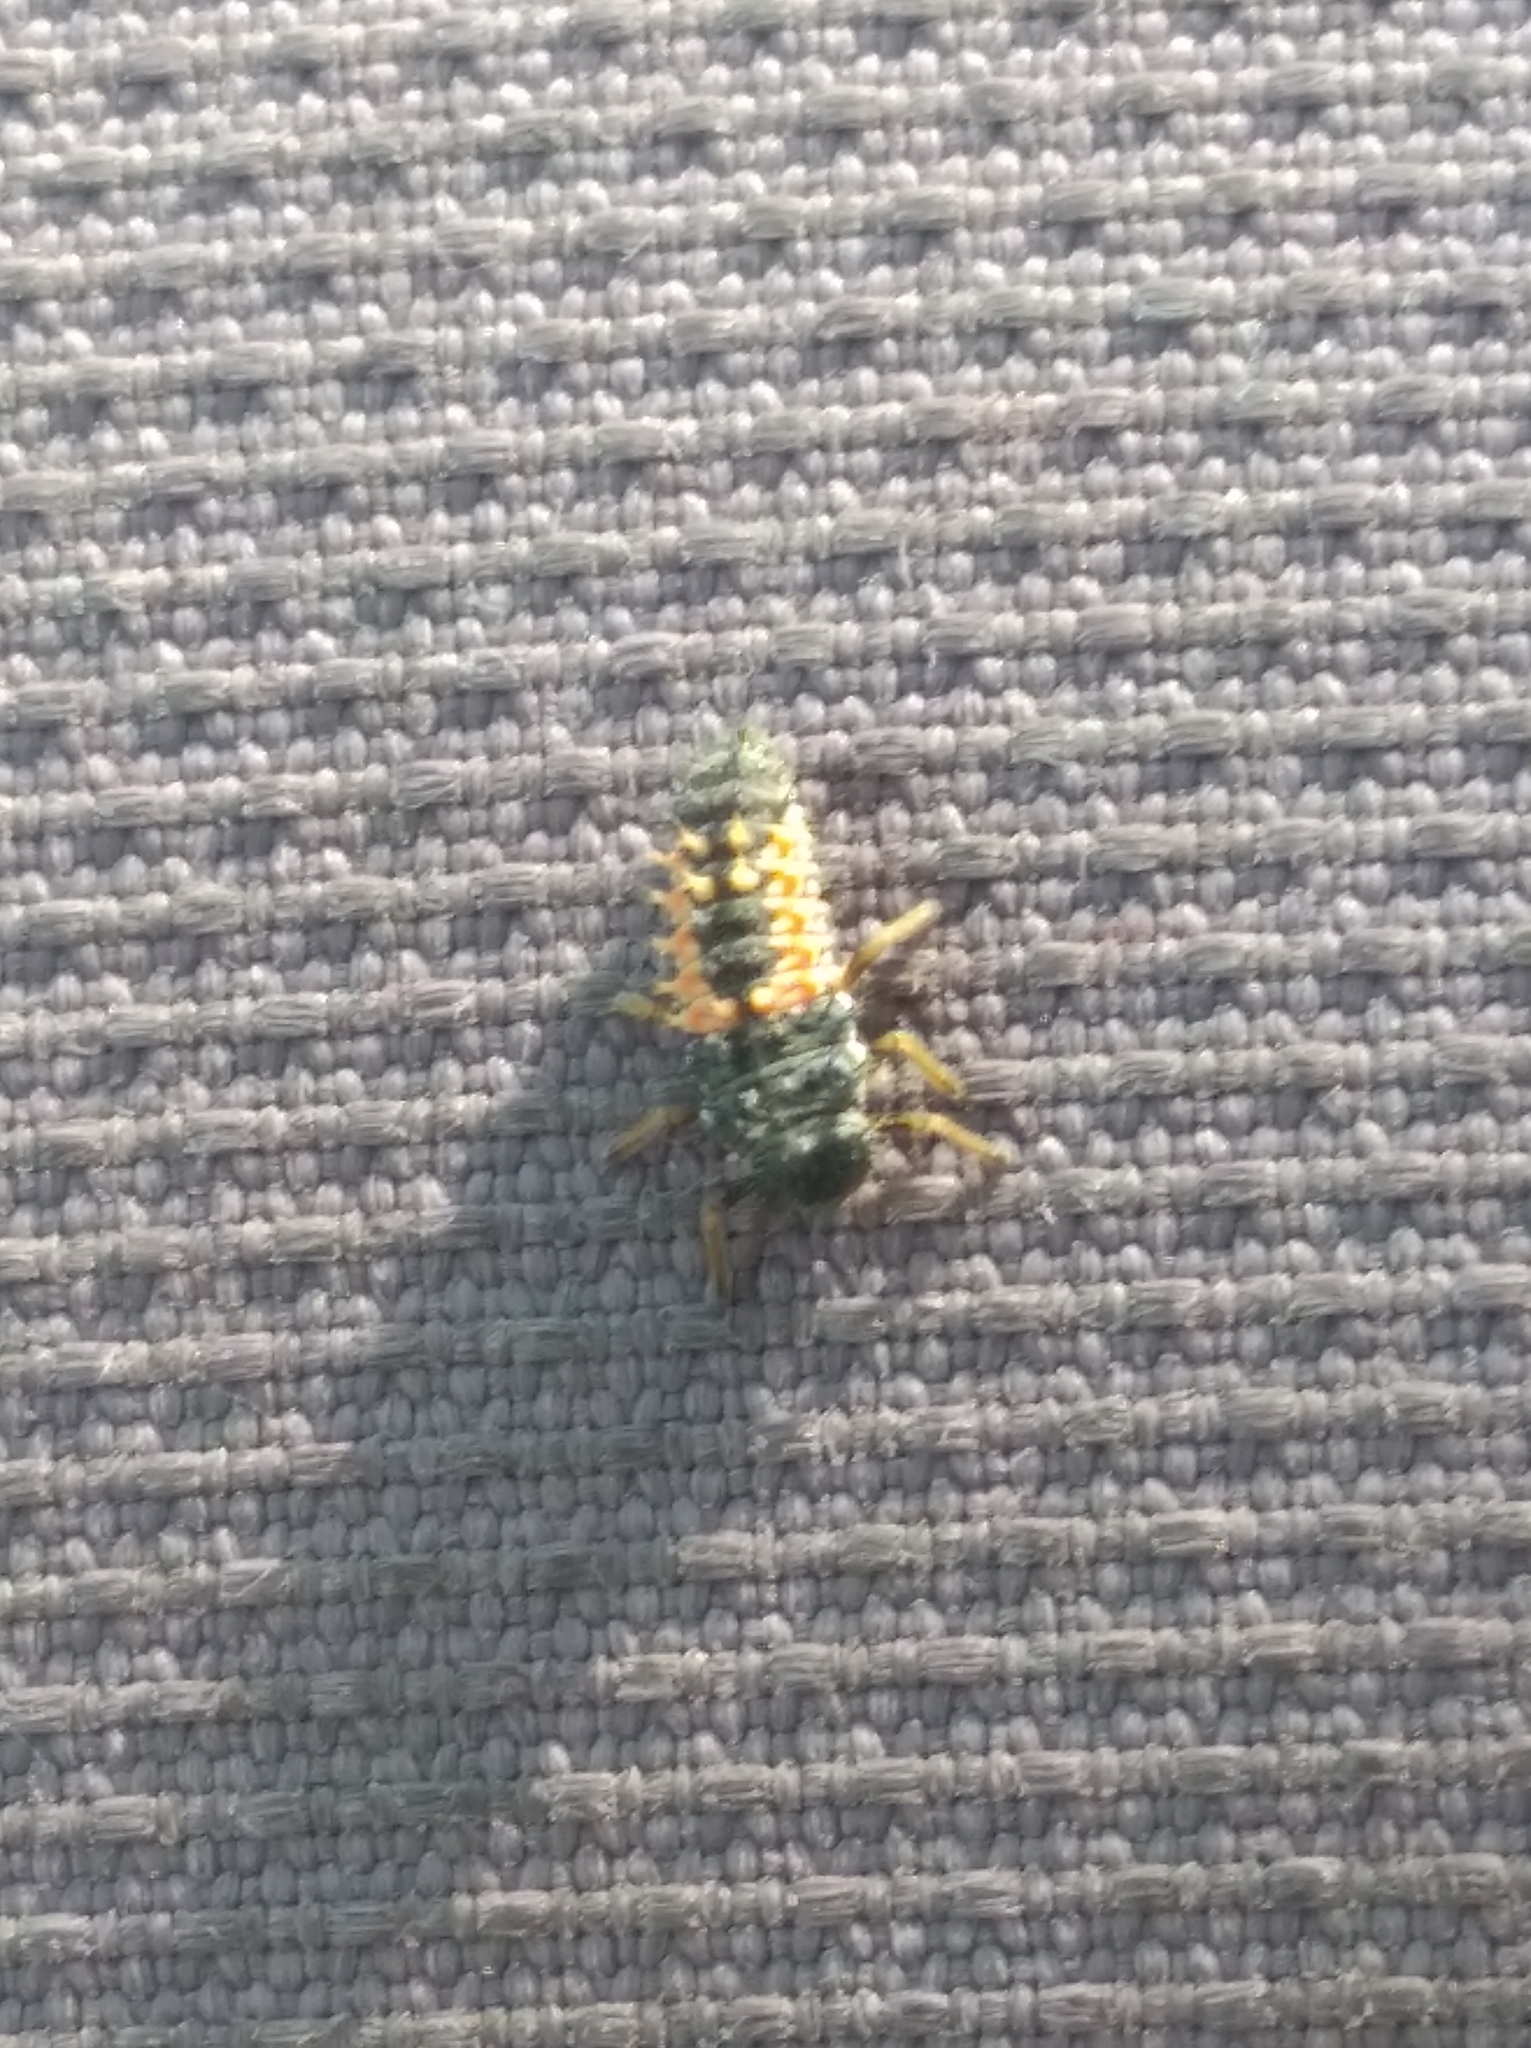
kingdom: Animalia
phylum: Arthropoda
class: Insecta
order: Coleoptera
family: Coccinellidae
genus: Harmonia
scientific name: Harmonia axyridis
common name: Harlequin ladybird
